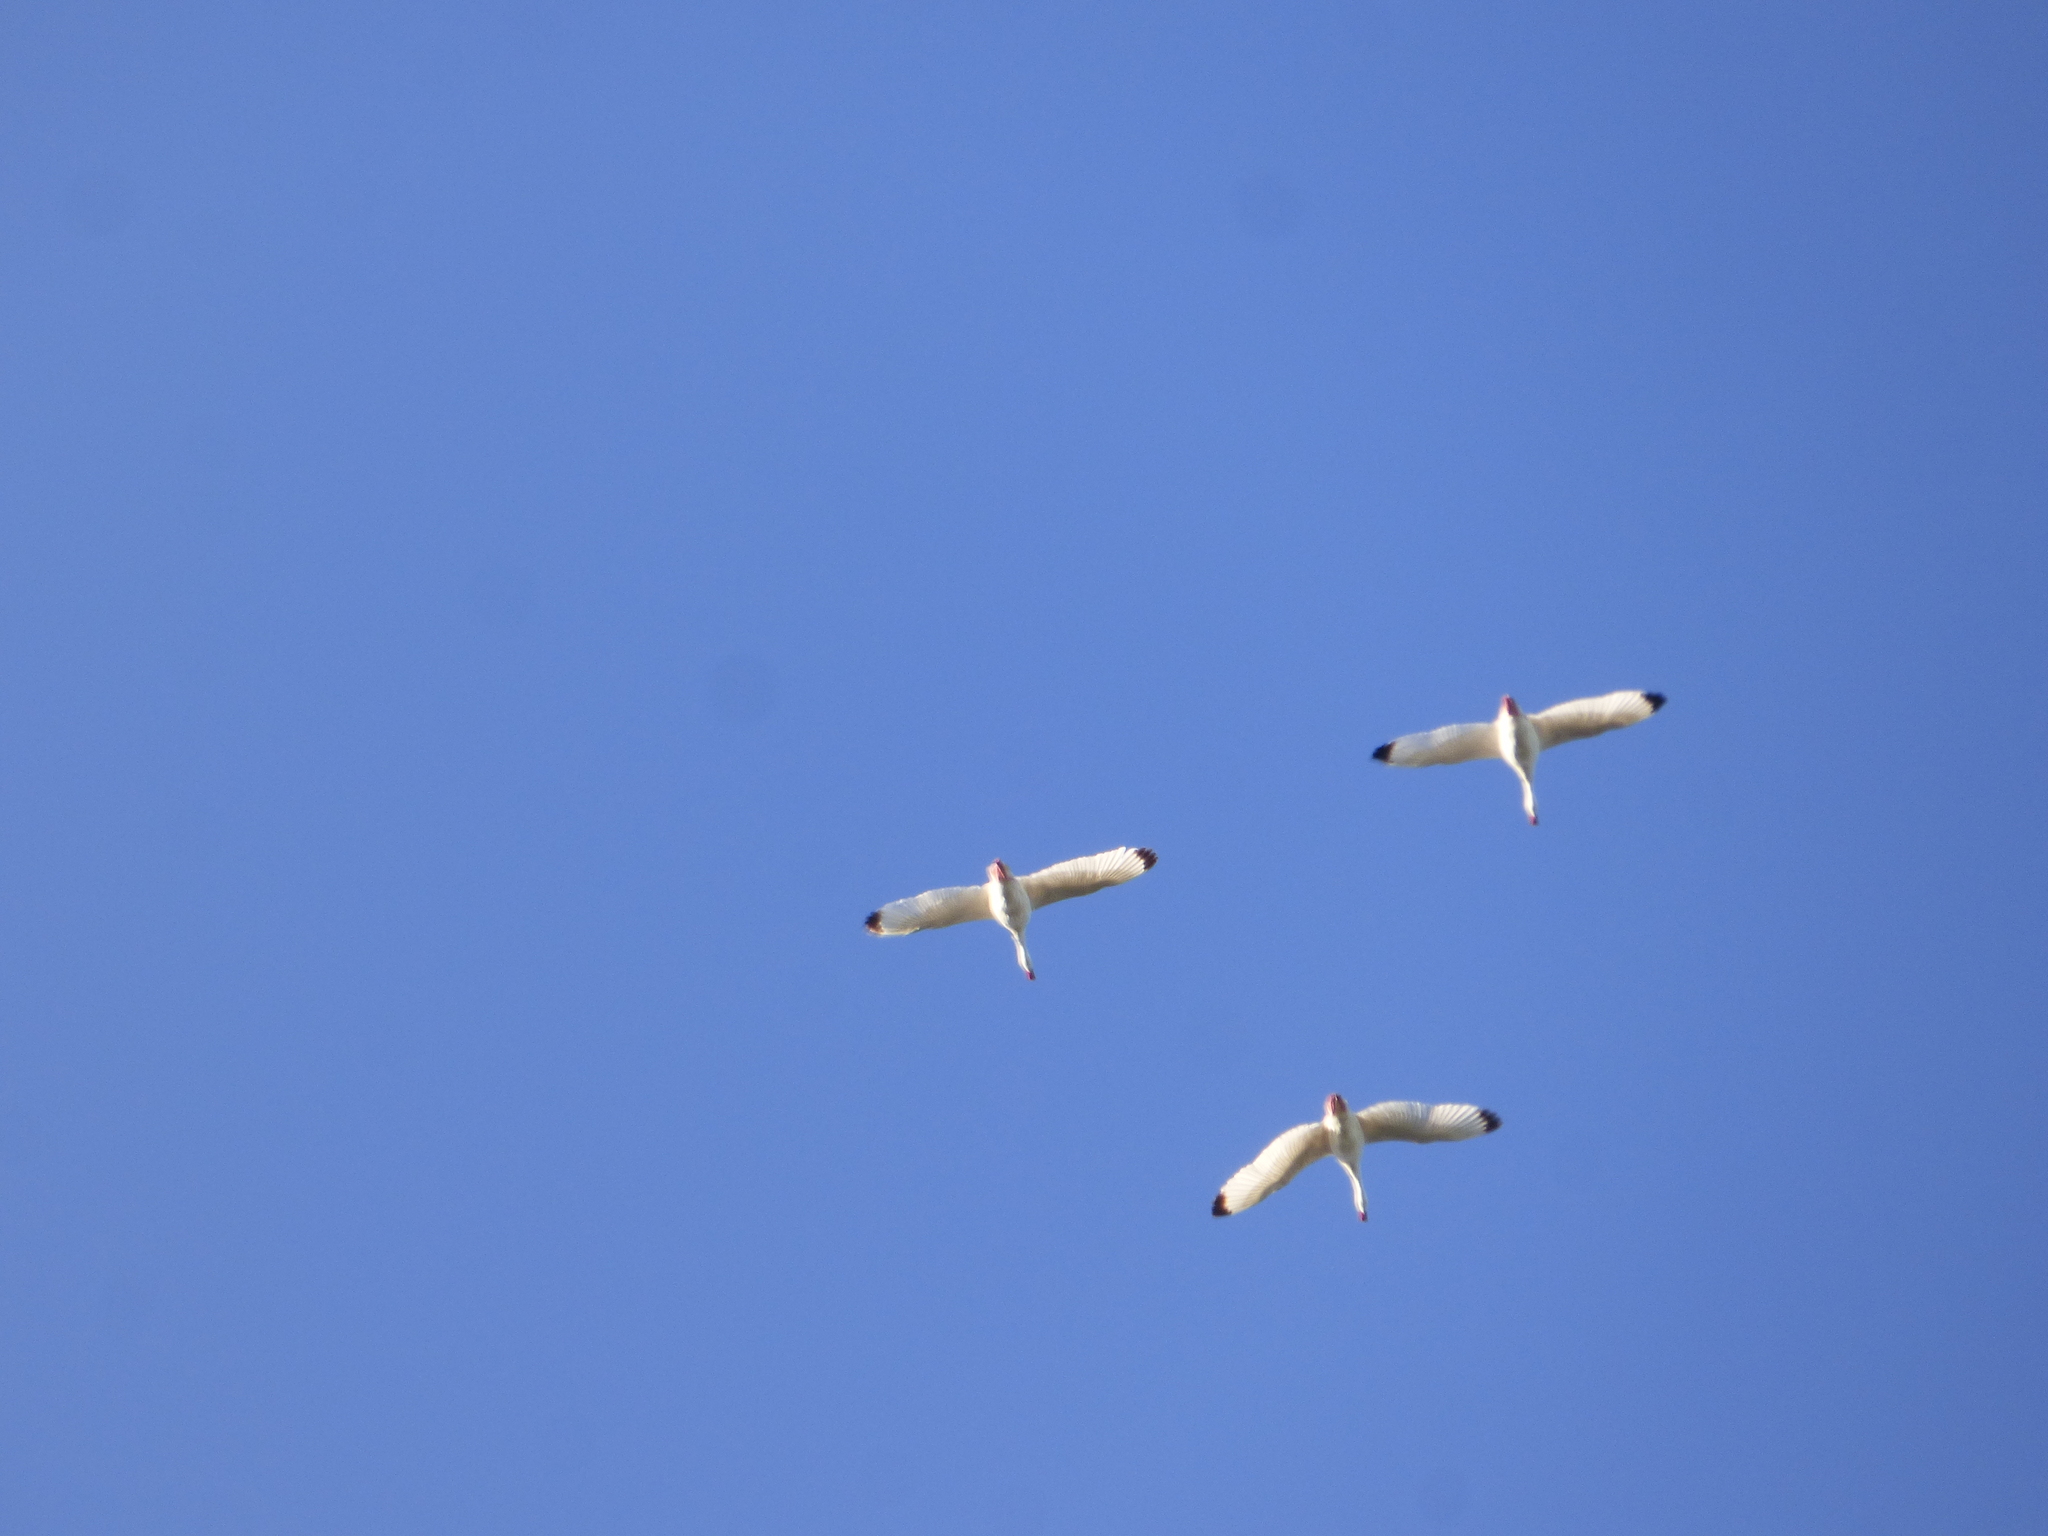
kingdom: Animalia
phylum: Chordata
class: Aves
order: Anseriformes
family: Anatidae
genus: Coscoroba
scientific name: Coscoroba coscoroba
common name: Coscoroba swan
